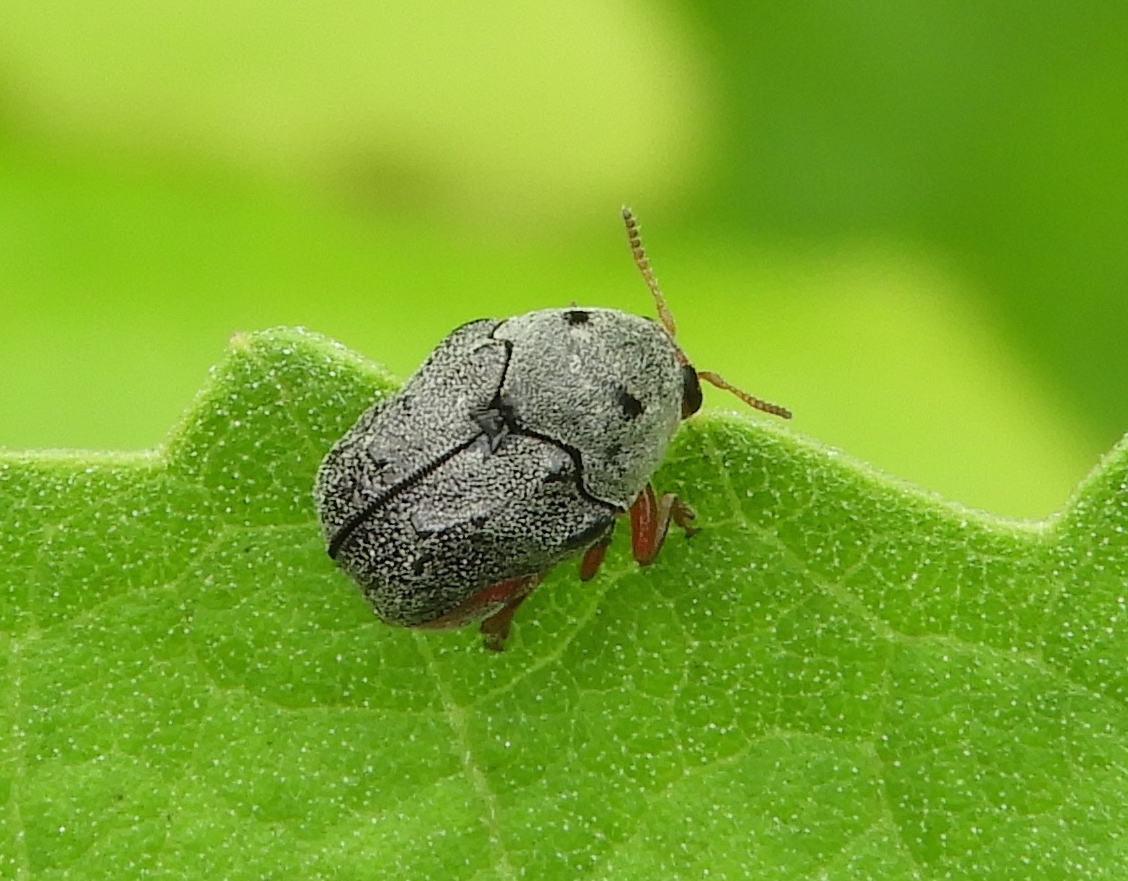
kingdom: Animalia
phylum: Arthropoda
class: Insecta
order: Coleoptera
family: Chrysomelidae
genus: Chlamisus
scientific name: Chlamisus maculipes
